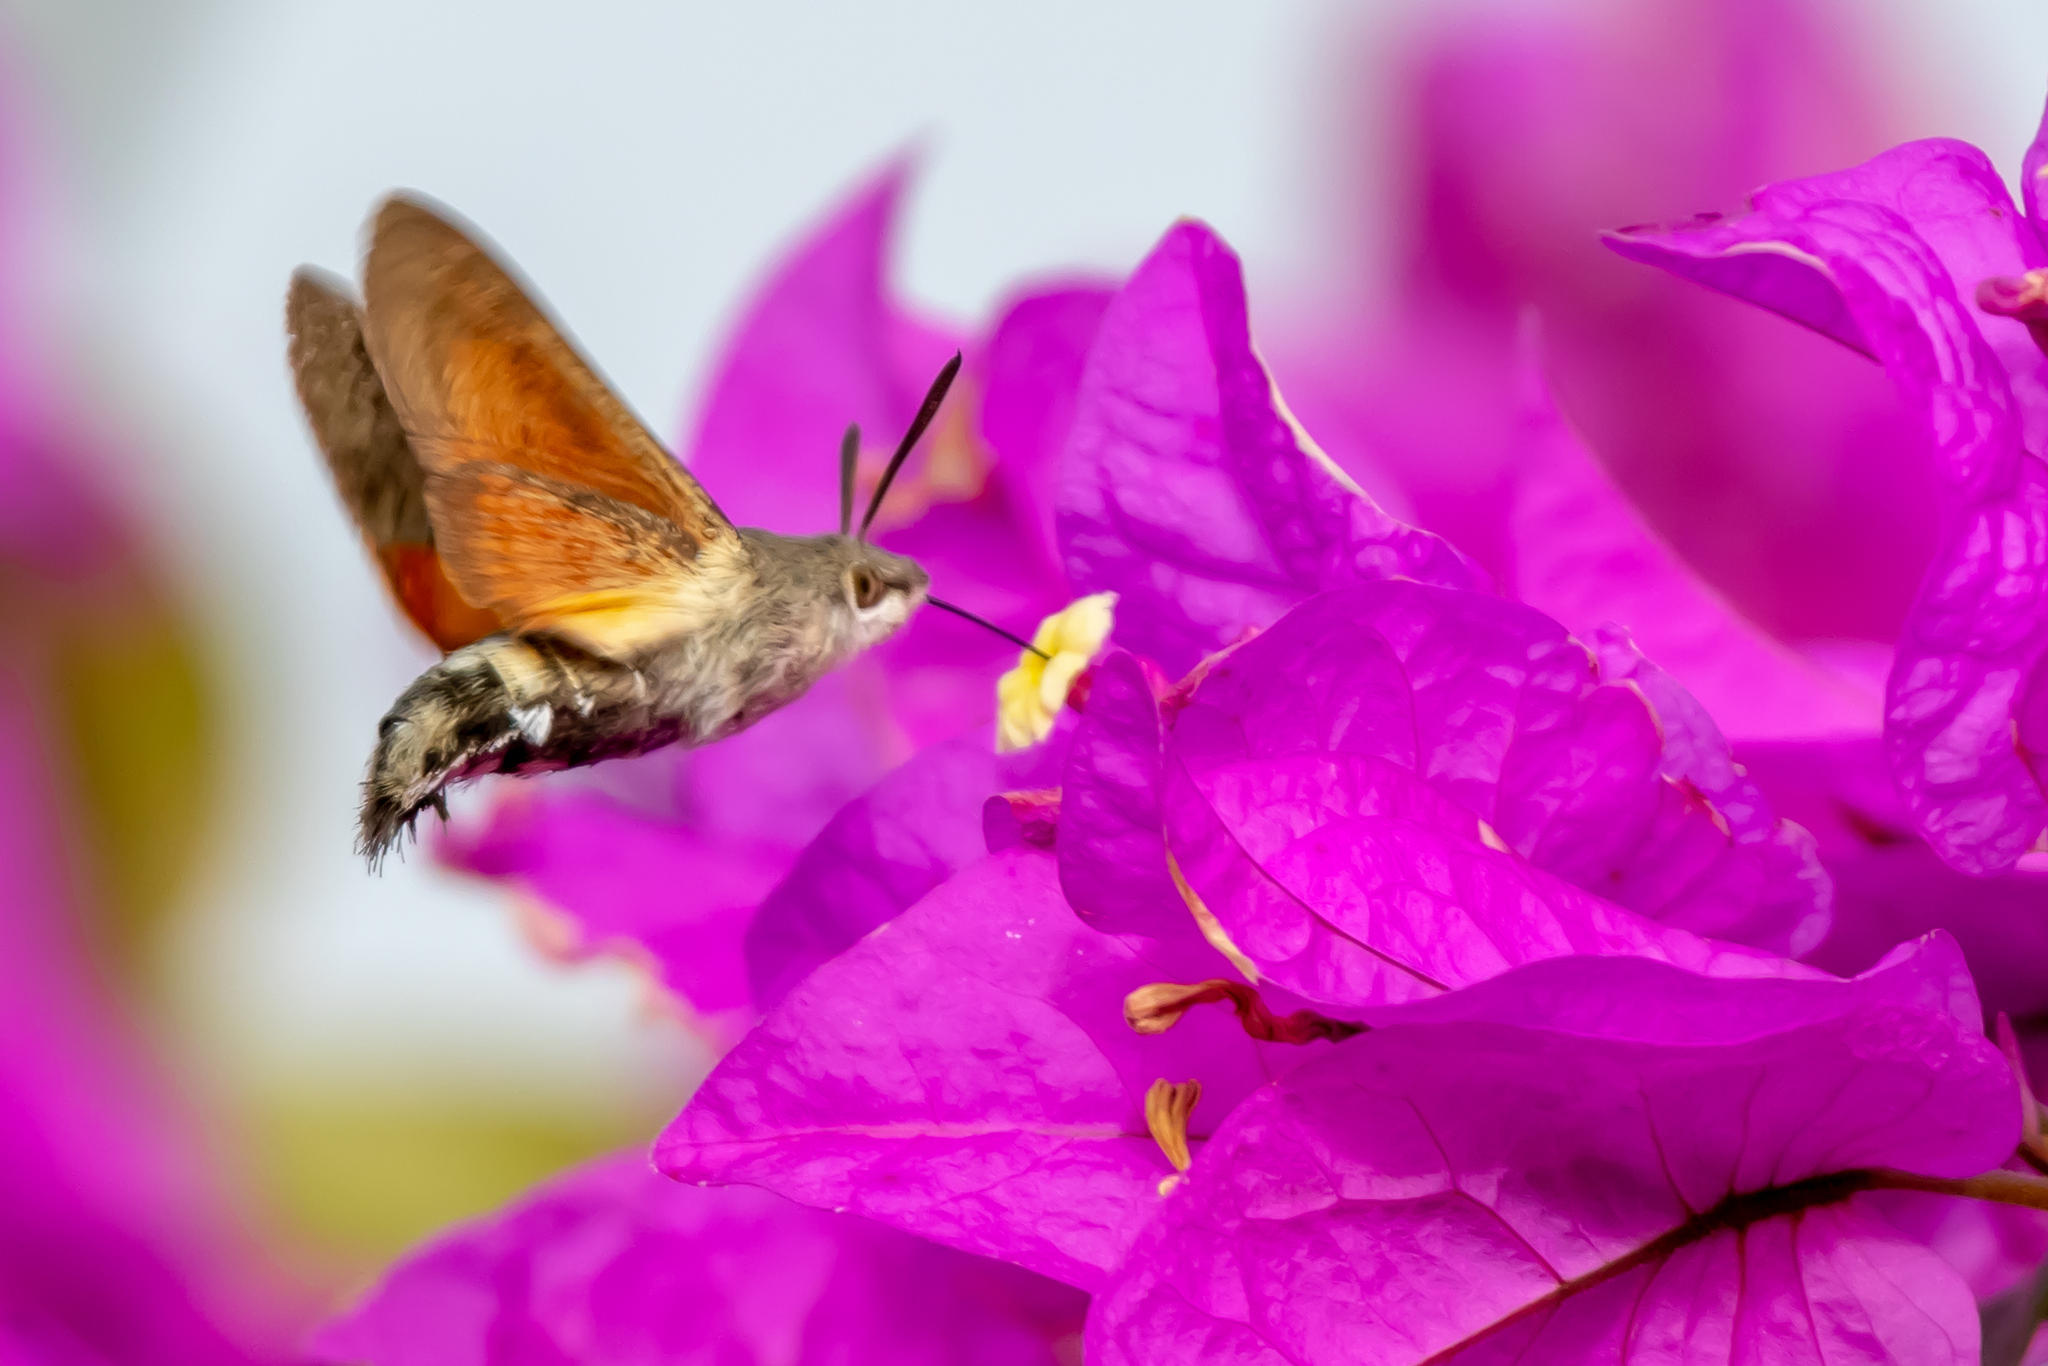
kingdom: Animalia
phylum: Arthropoda
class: Insecta
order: Lepidoptera
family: Sphingidae
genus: Macroglossum
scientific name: Macroglossum stellatarum
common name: Humming-bird hawk-moth
